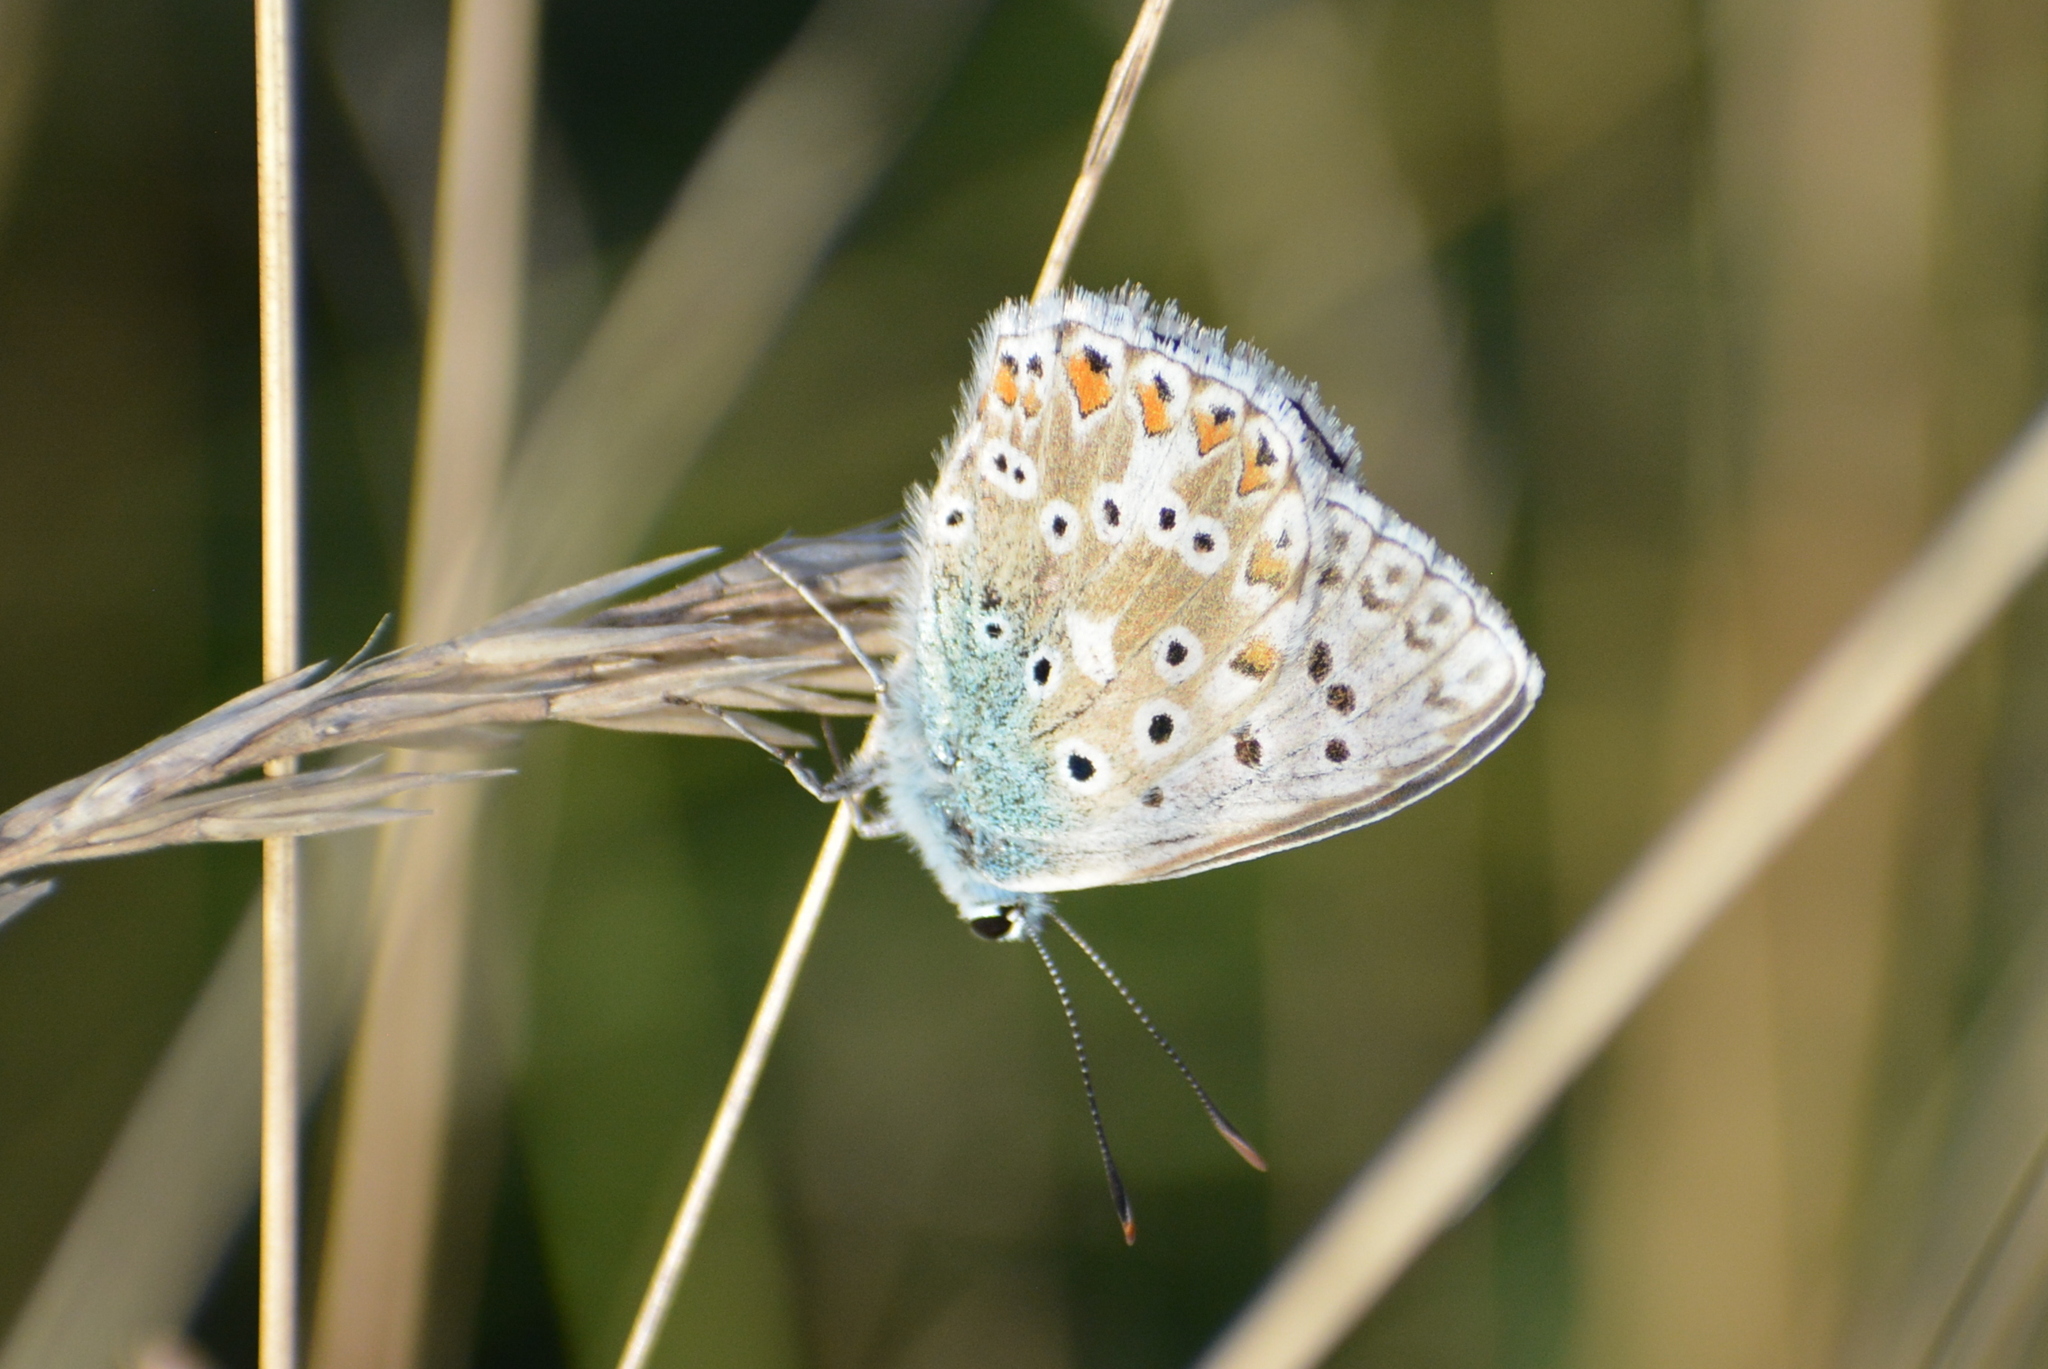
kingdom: Animalia
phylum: Arthropoda
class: Insecta
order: Lepidoptera
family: Lycaenidae
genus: Lysandra
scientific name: Lysandra coridon
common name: Chalkhill blue
